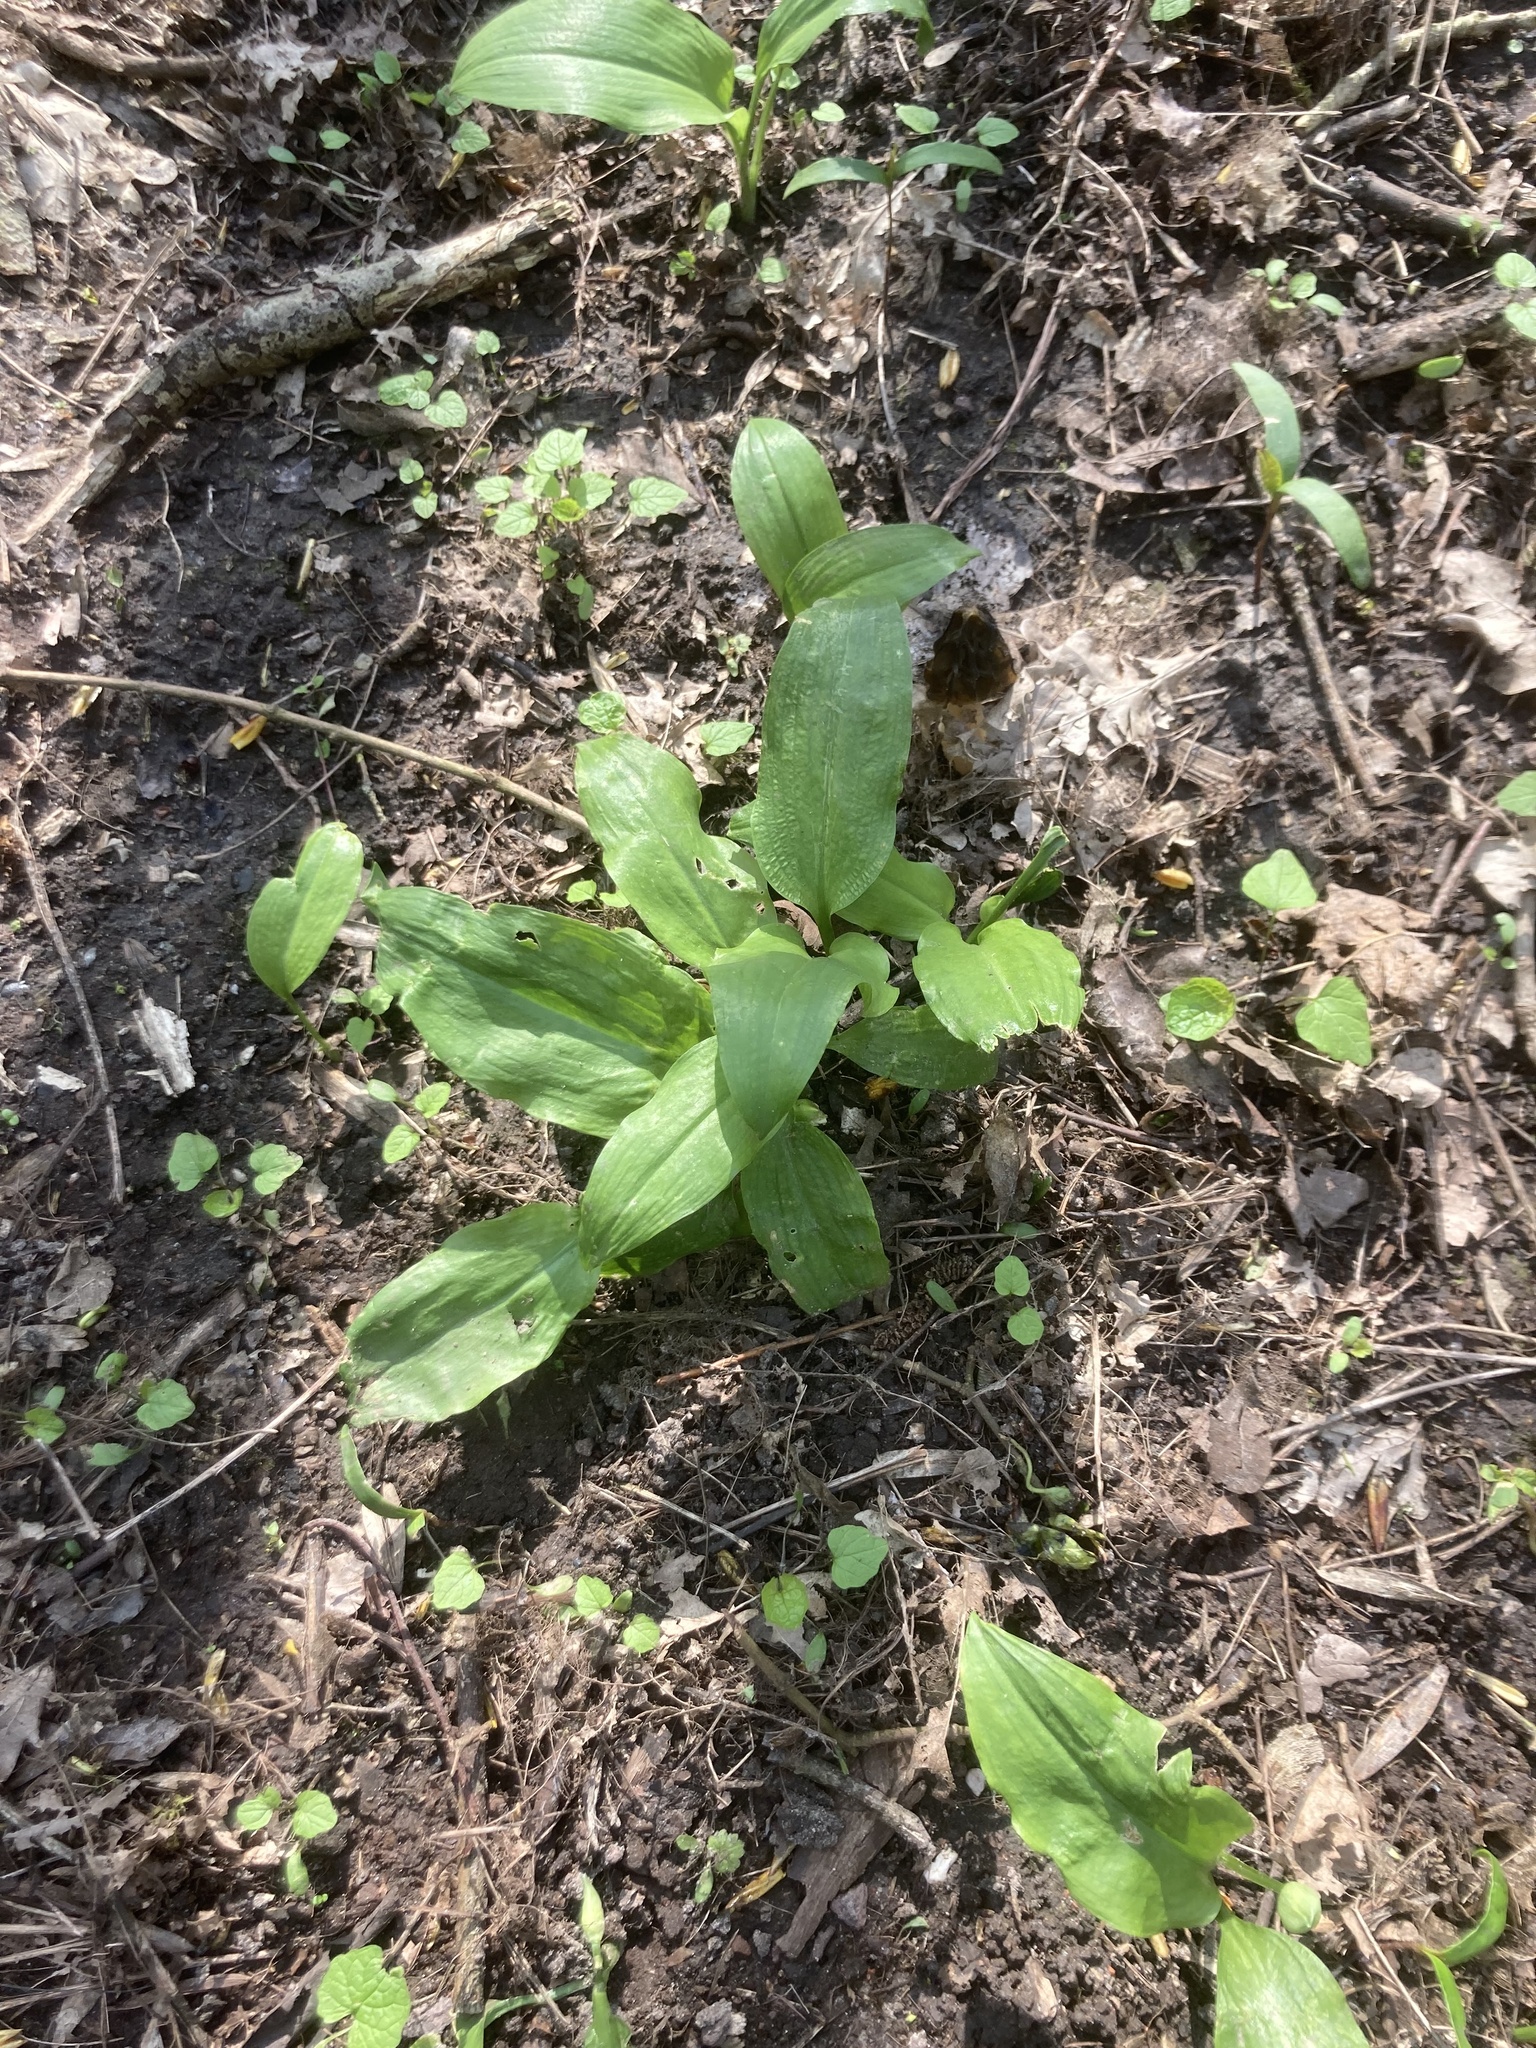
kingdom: Plantae
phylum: Tracheophyta
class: Liliopsida
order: Asparagales
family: Amaryllidaceae
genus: Allium
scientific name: Allium ursinum
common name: Ramsons
